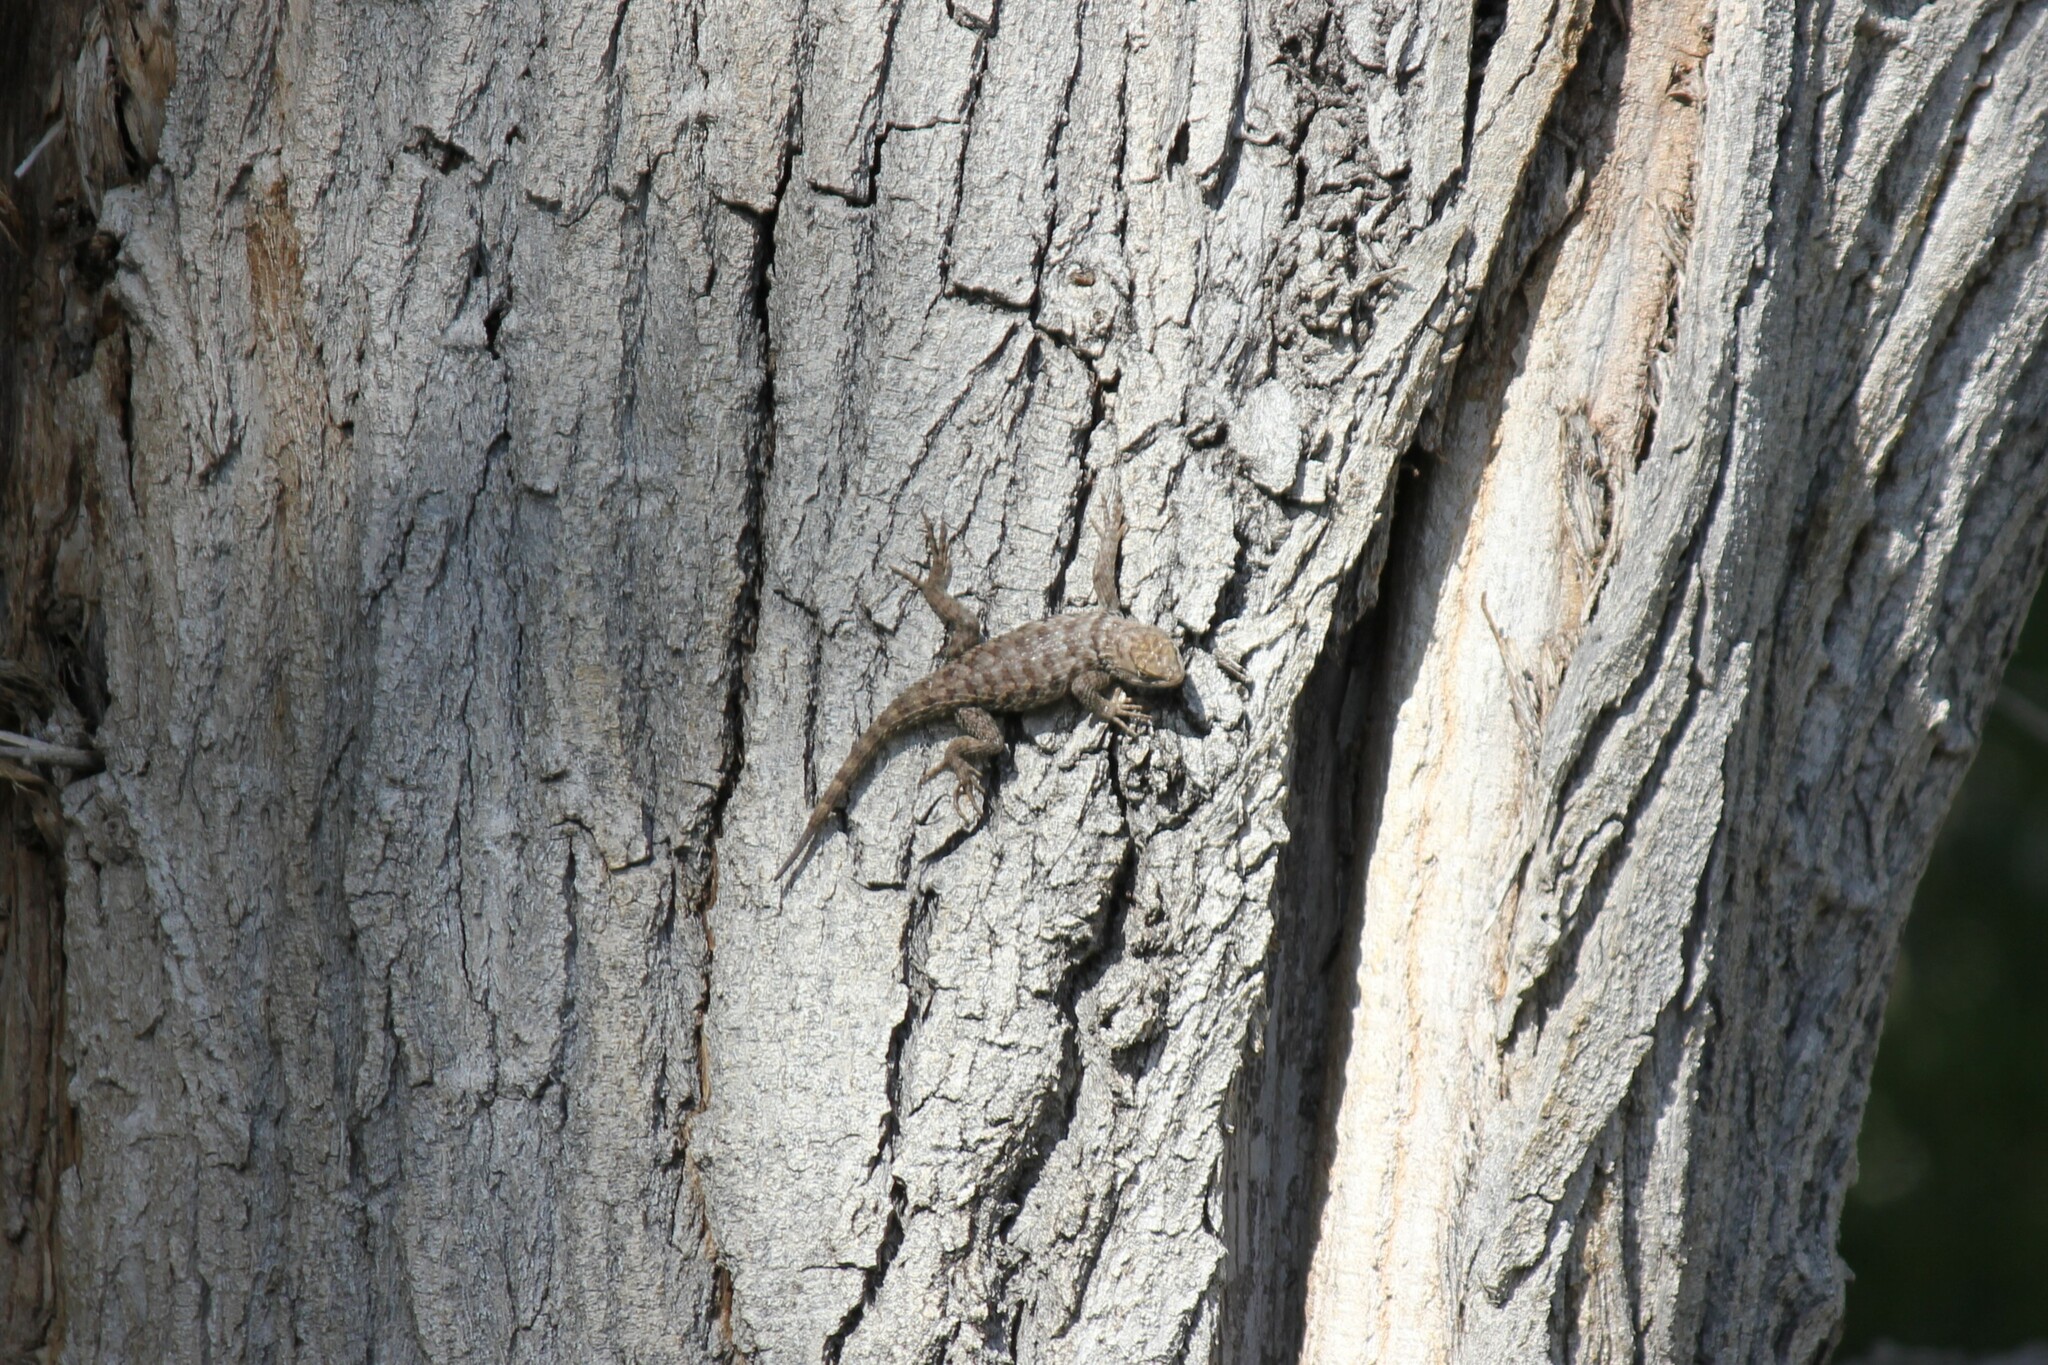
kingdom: Animalia
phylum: Chordata
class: Squamata
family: Phrynosomatidae
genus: Sceloporus
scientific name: Sceloporus uniformis
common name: Yellow-backed spiny lizard
